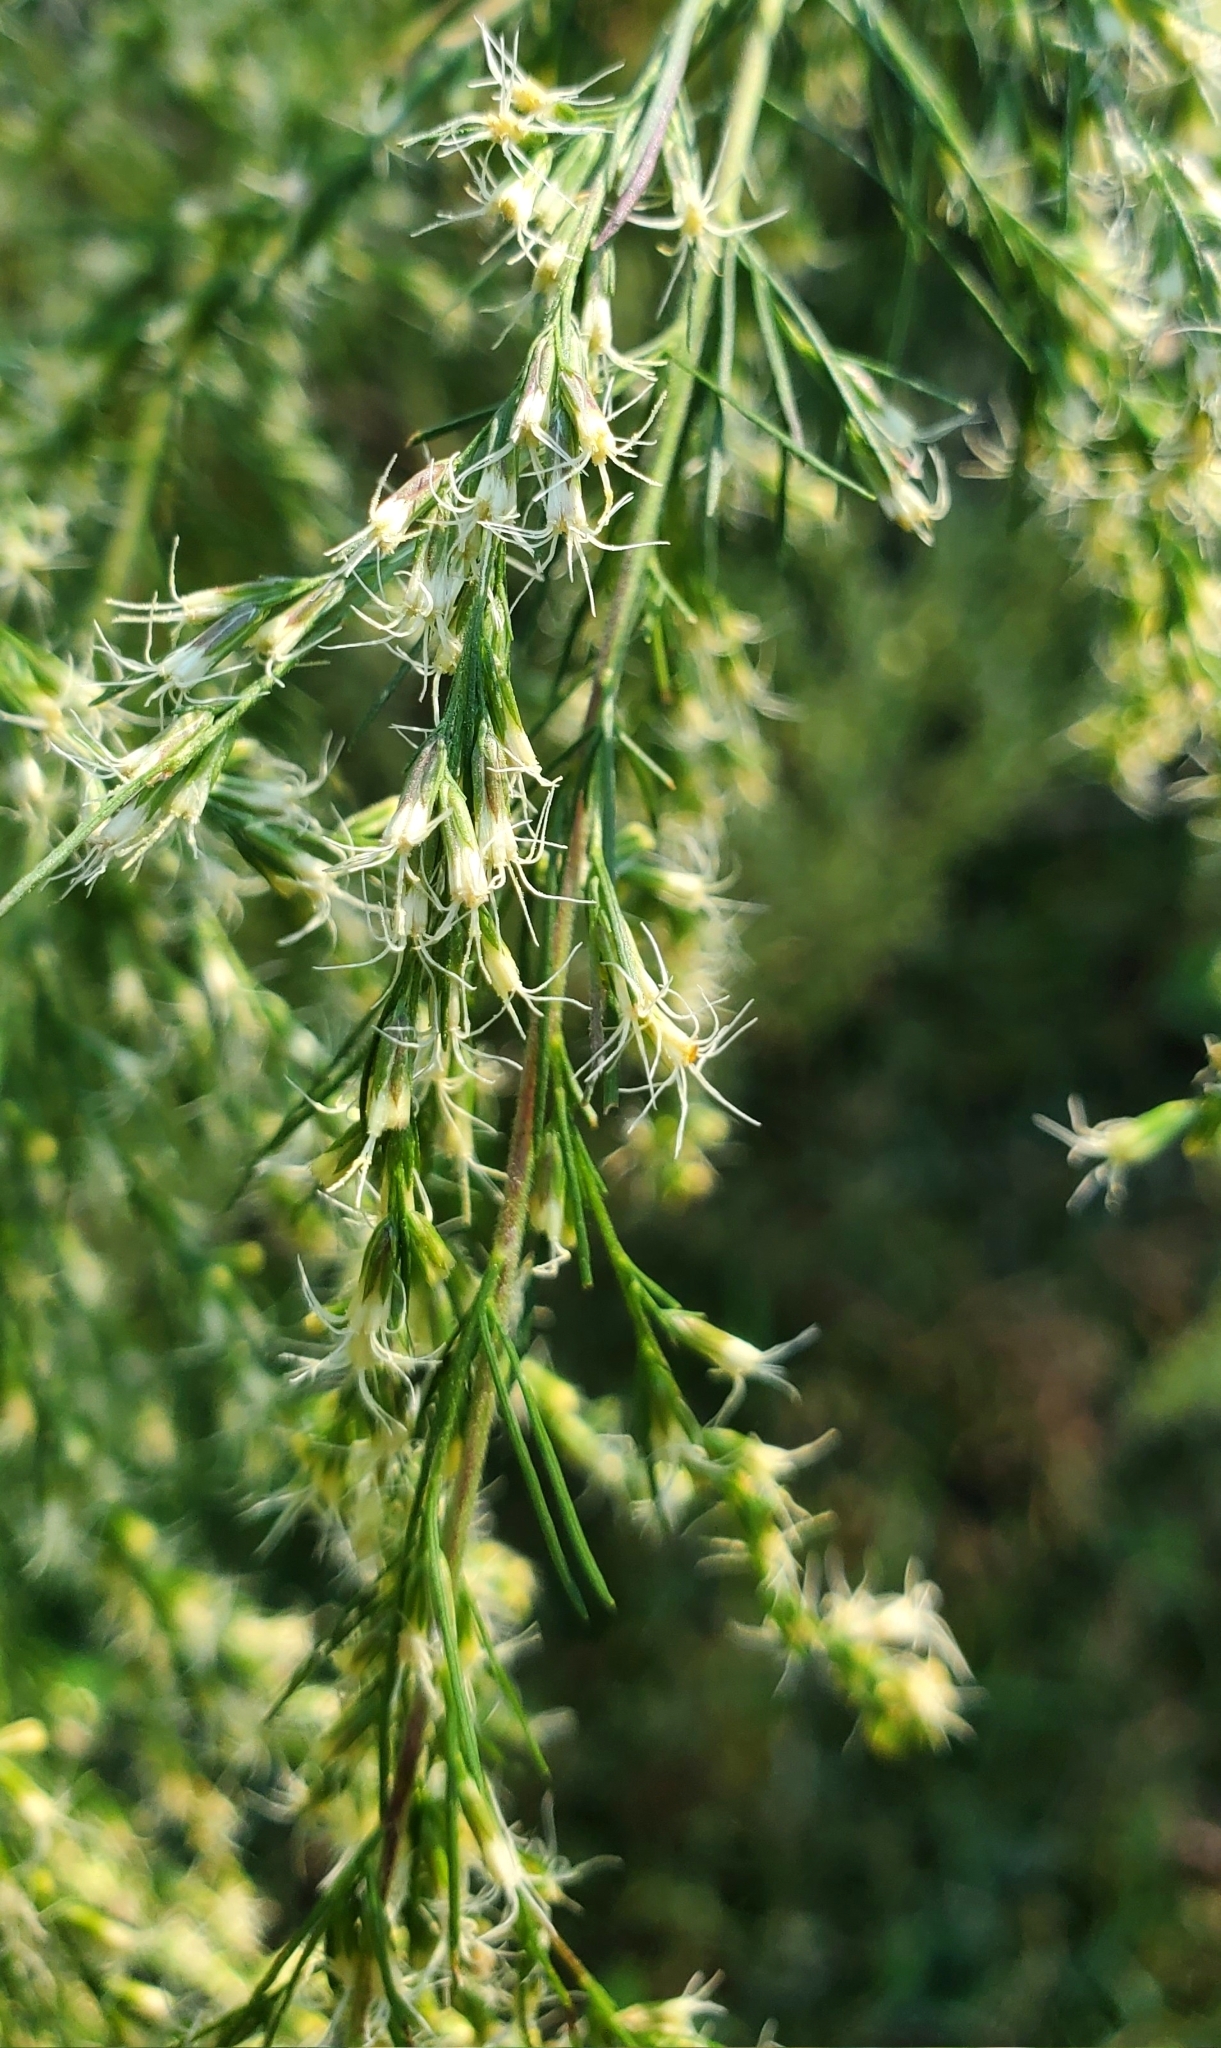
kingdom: Plantae
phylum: Tracheophyta
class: Magnoliopsida
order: Asterales
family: Asteraceae
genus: Eupatorium
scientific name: Eupatorium capillifolium
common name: Dog-fennel
